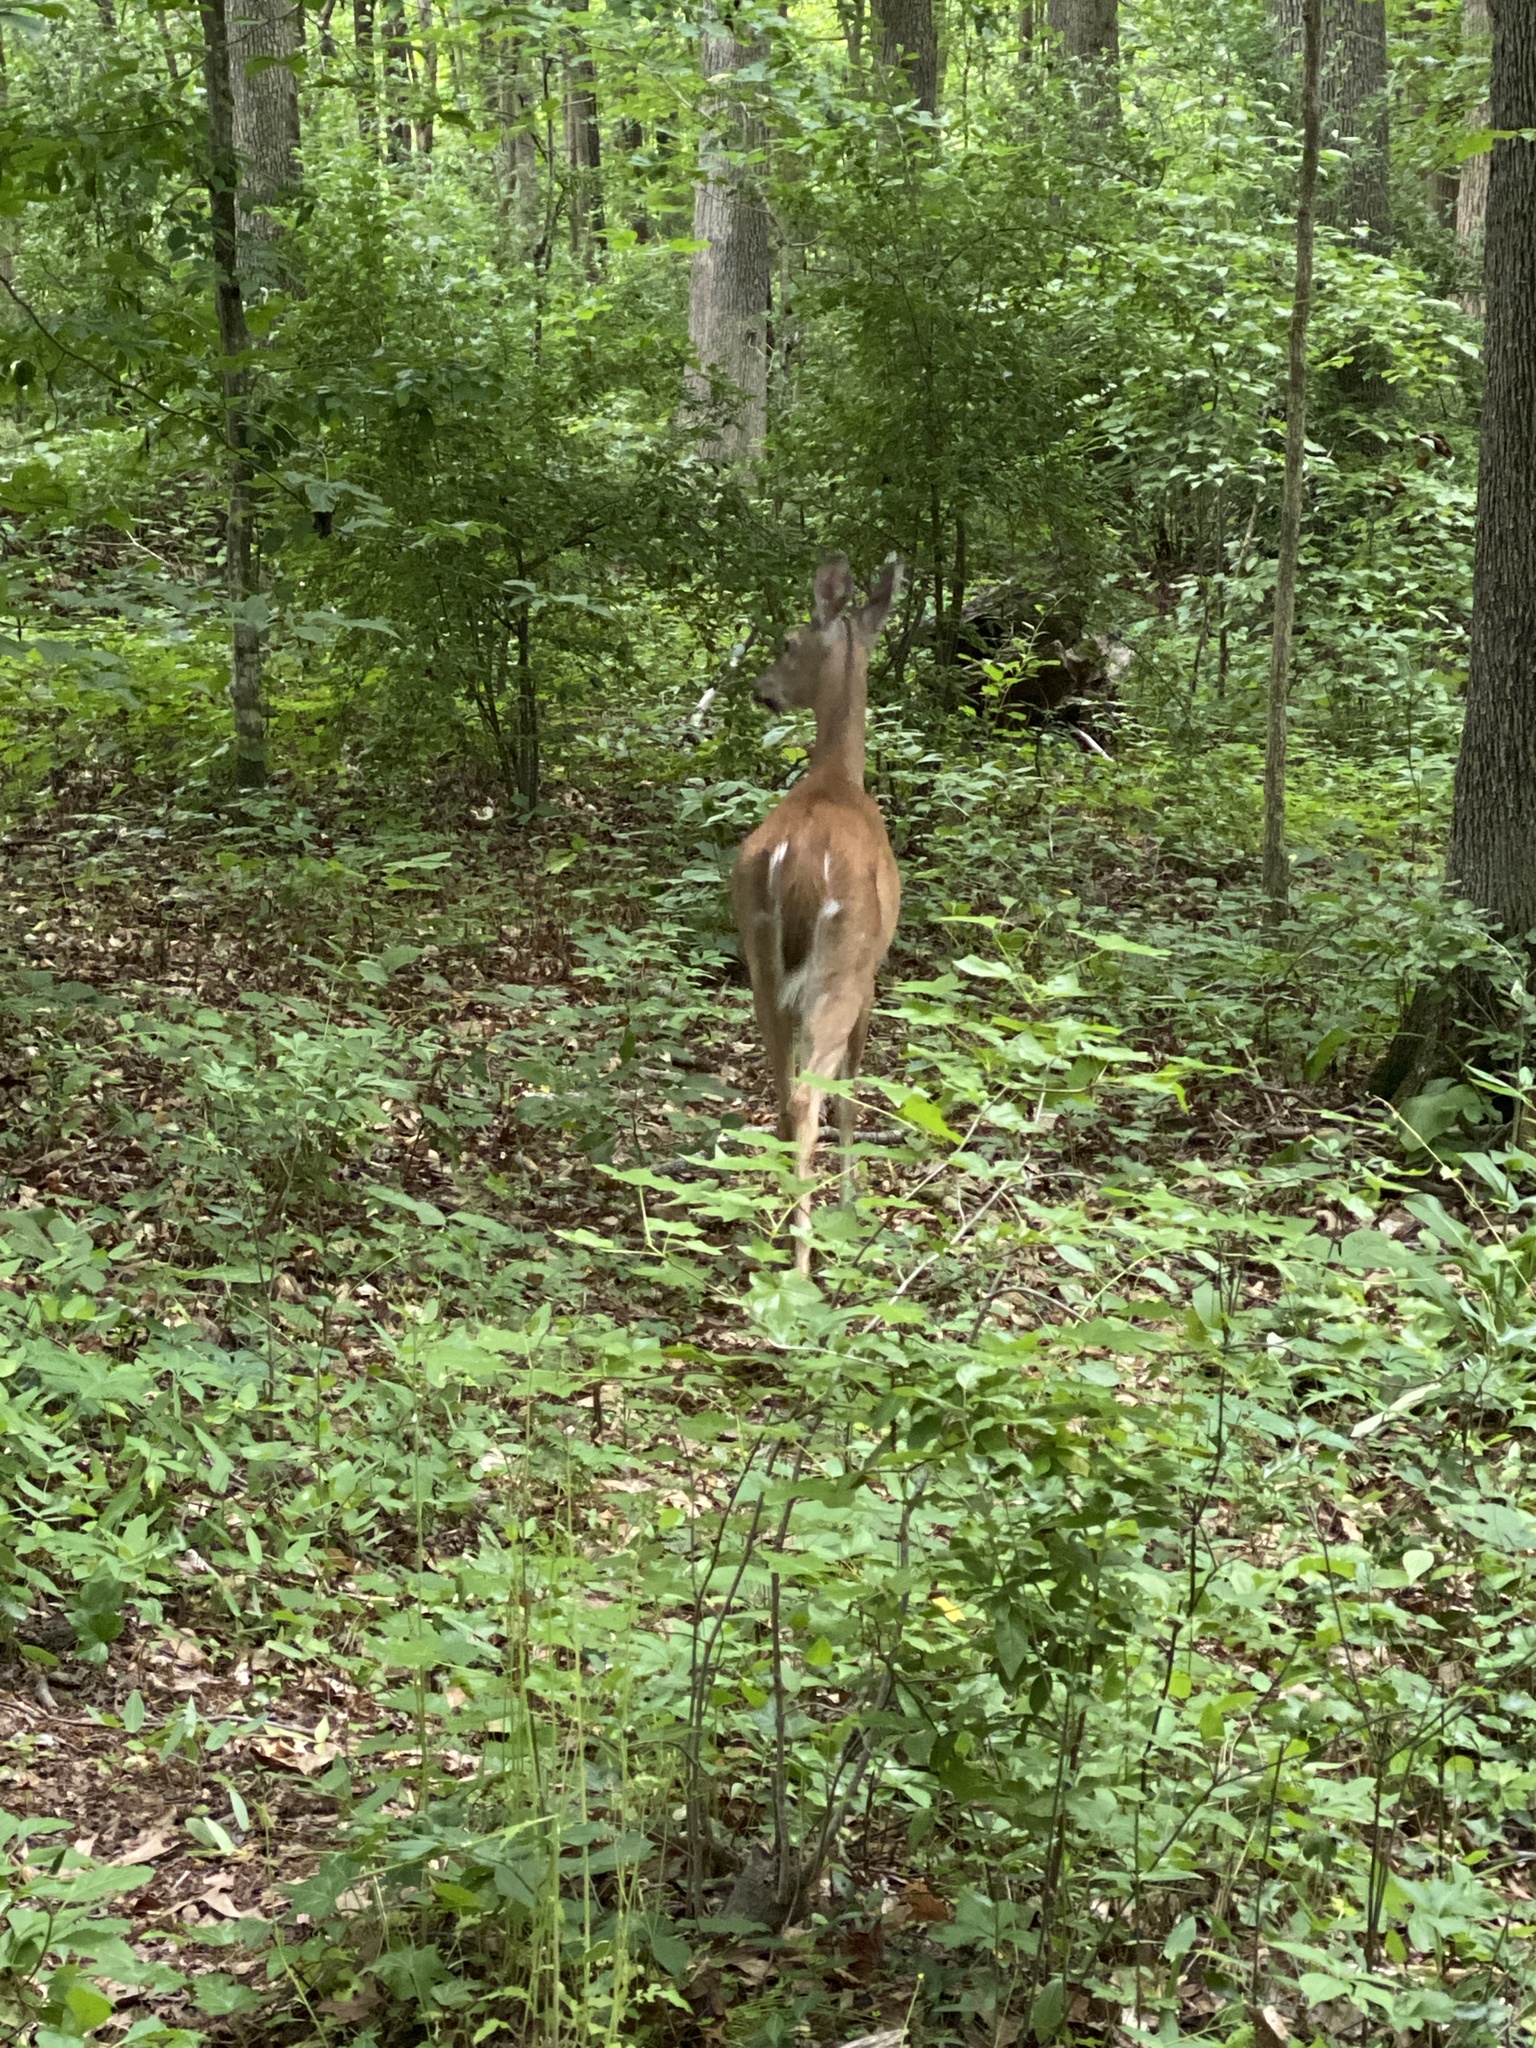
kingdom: Animalia
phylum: Chordata
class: Mammalia
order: Artiodactyla
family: Cervidae
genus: Odocoileus
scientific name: Odocoileus virginianus
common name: White-tailed deer
